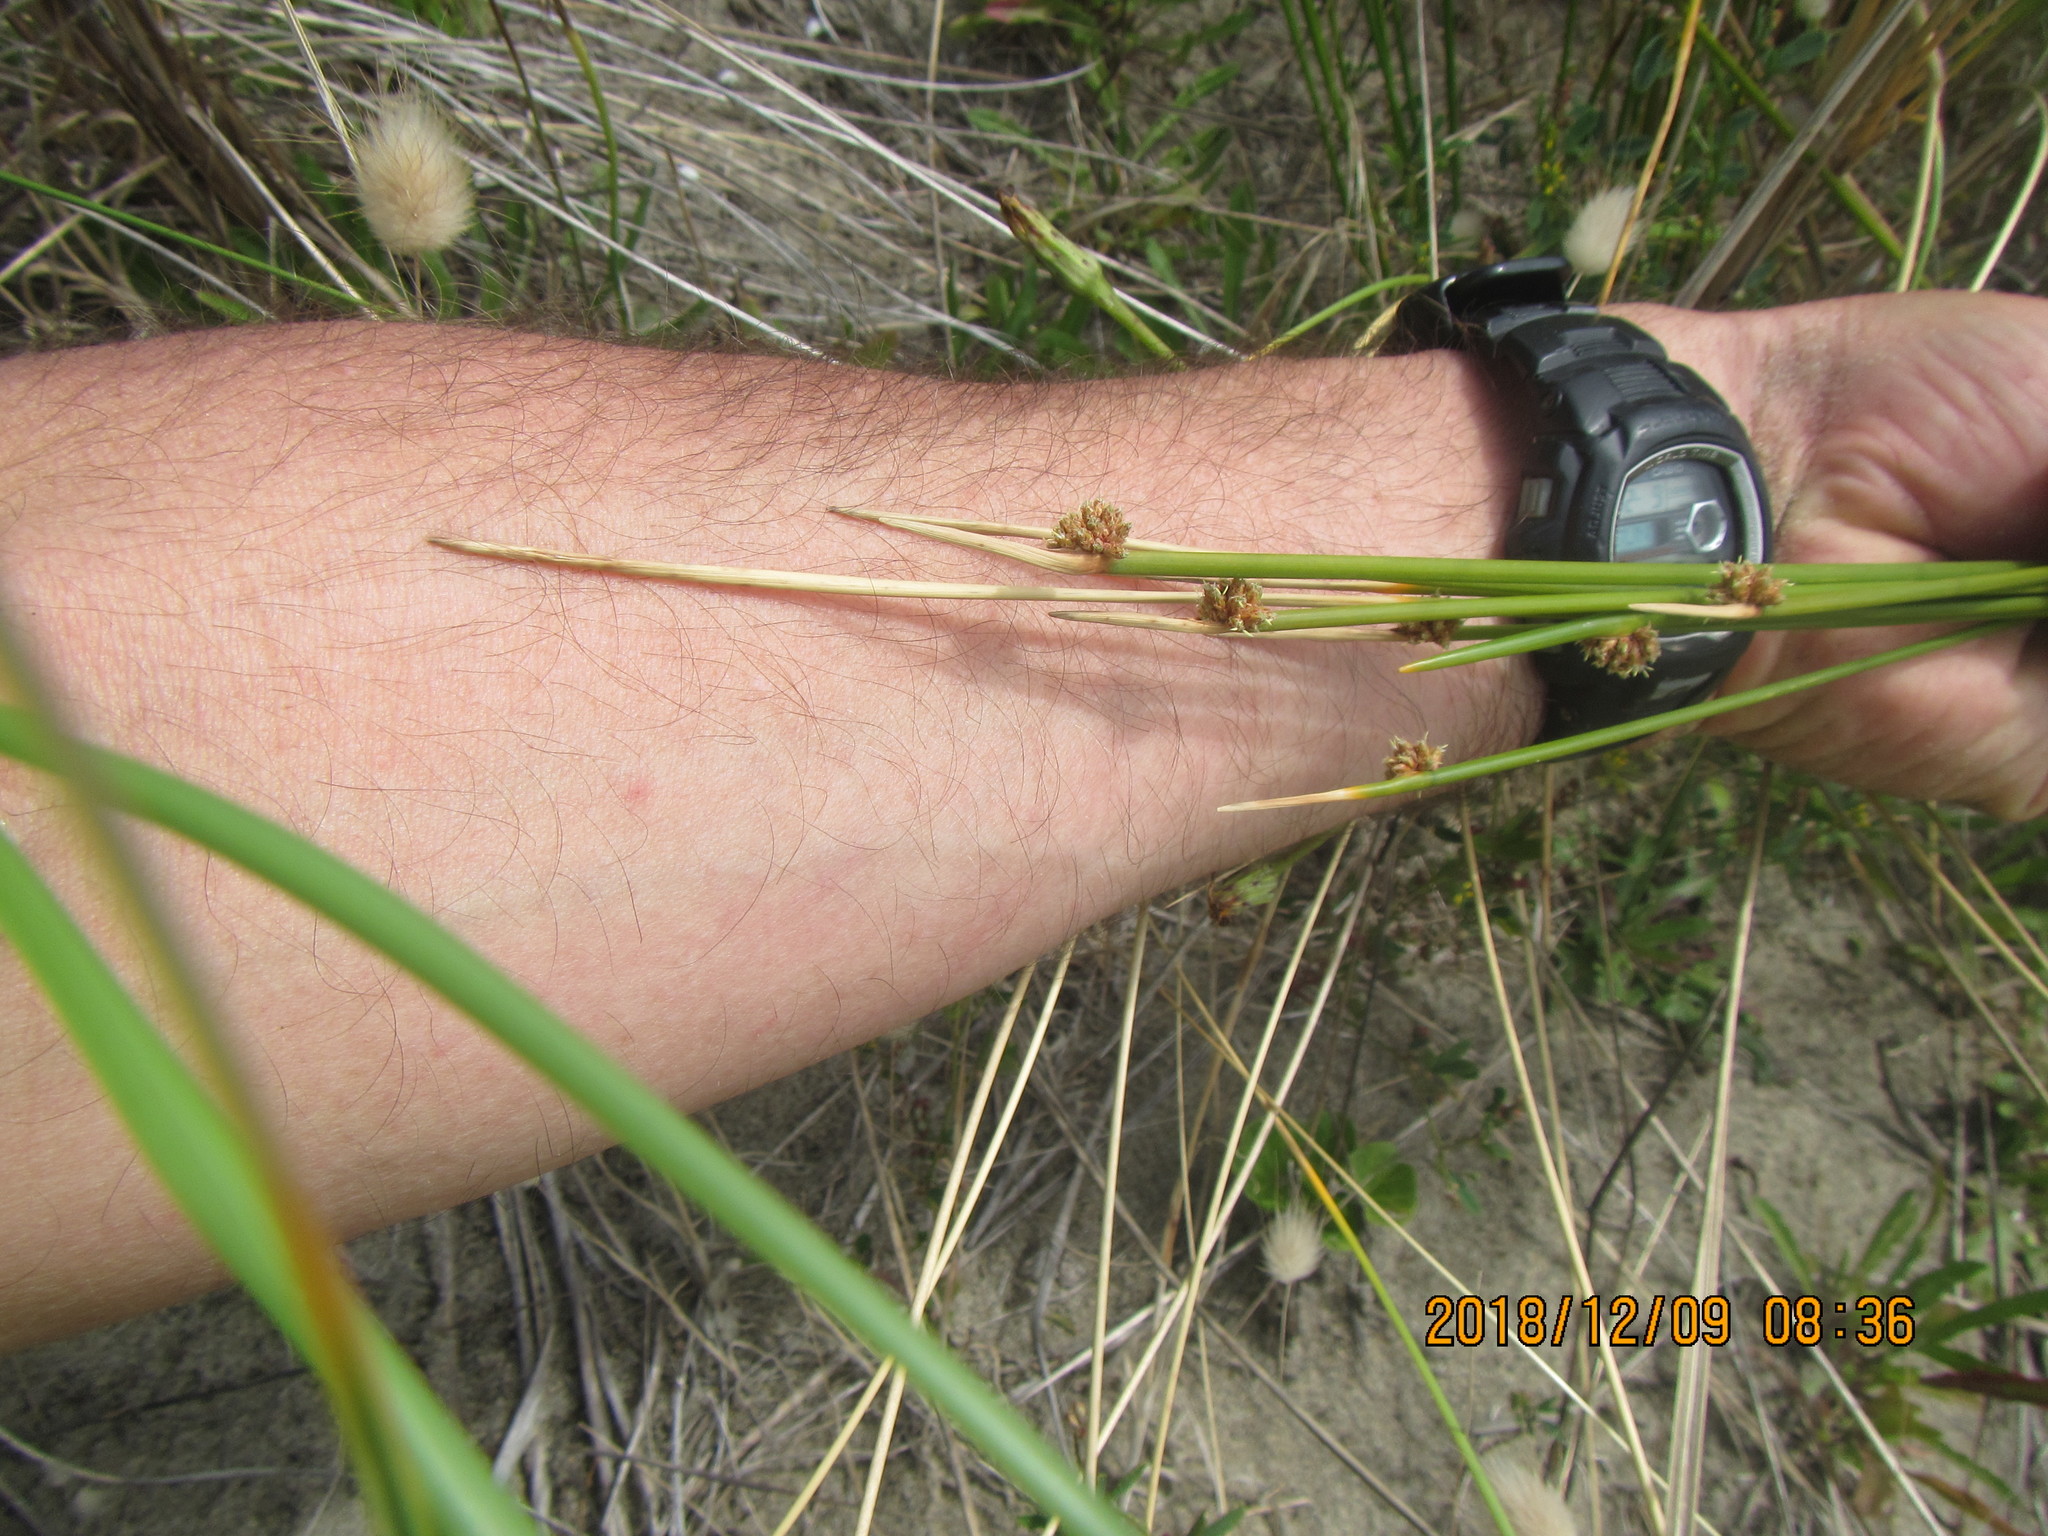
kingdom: Plantae
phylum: Tracheophyta
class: Liliopsida
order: Poales
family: Cyperaceae
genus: Ficinia
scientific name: Ficinia nodosa
